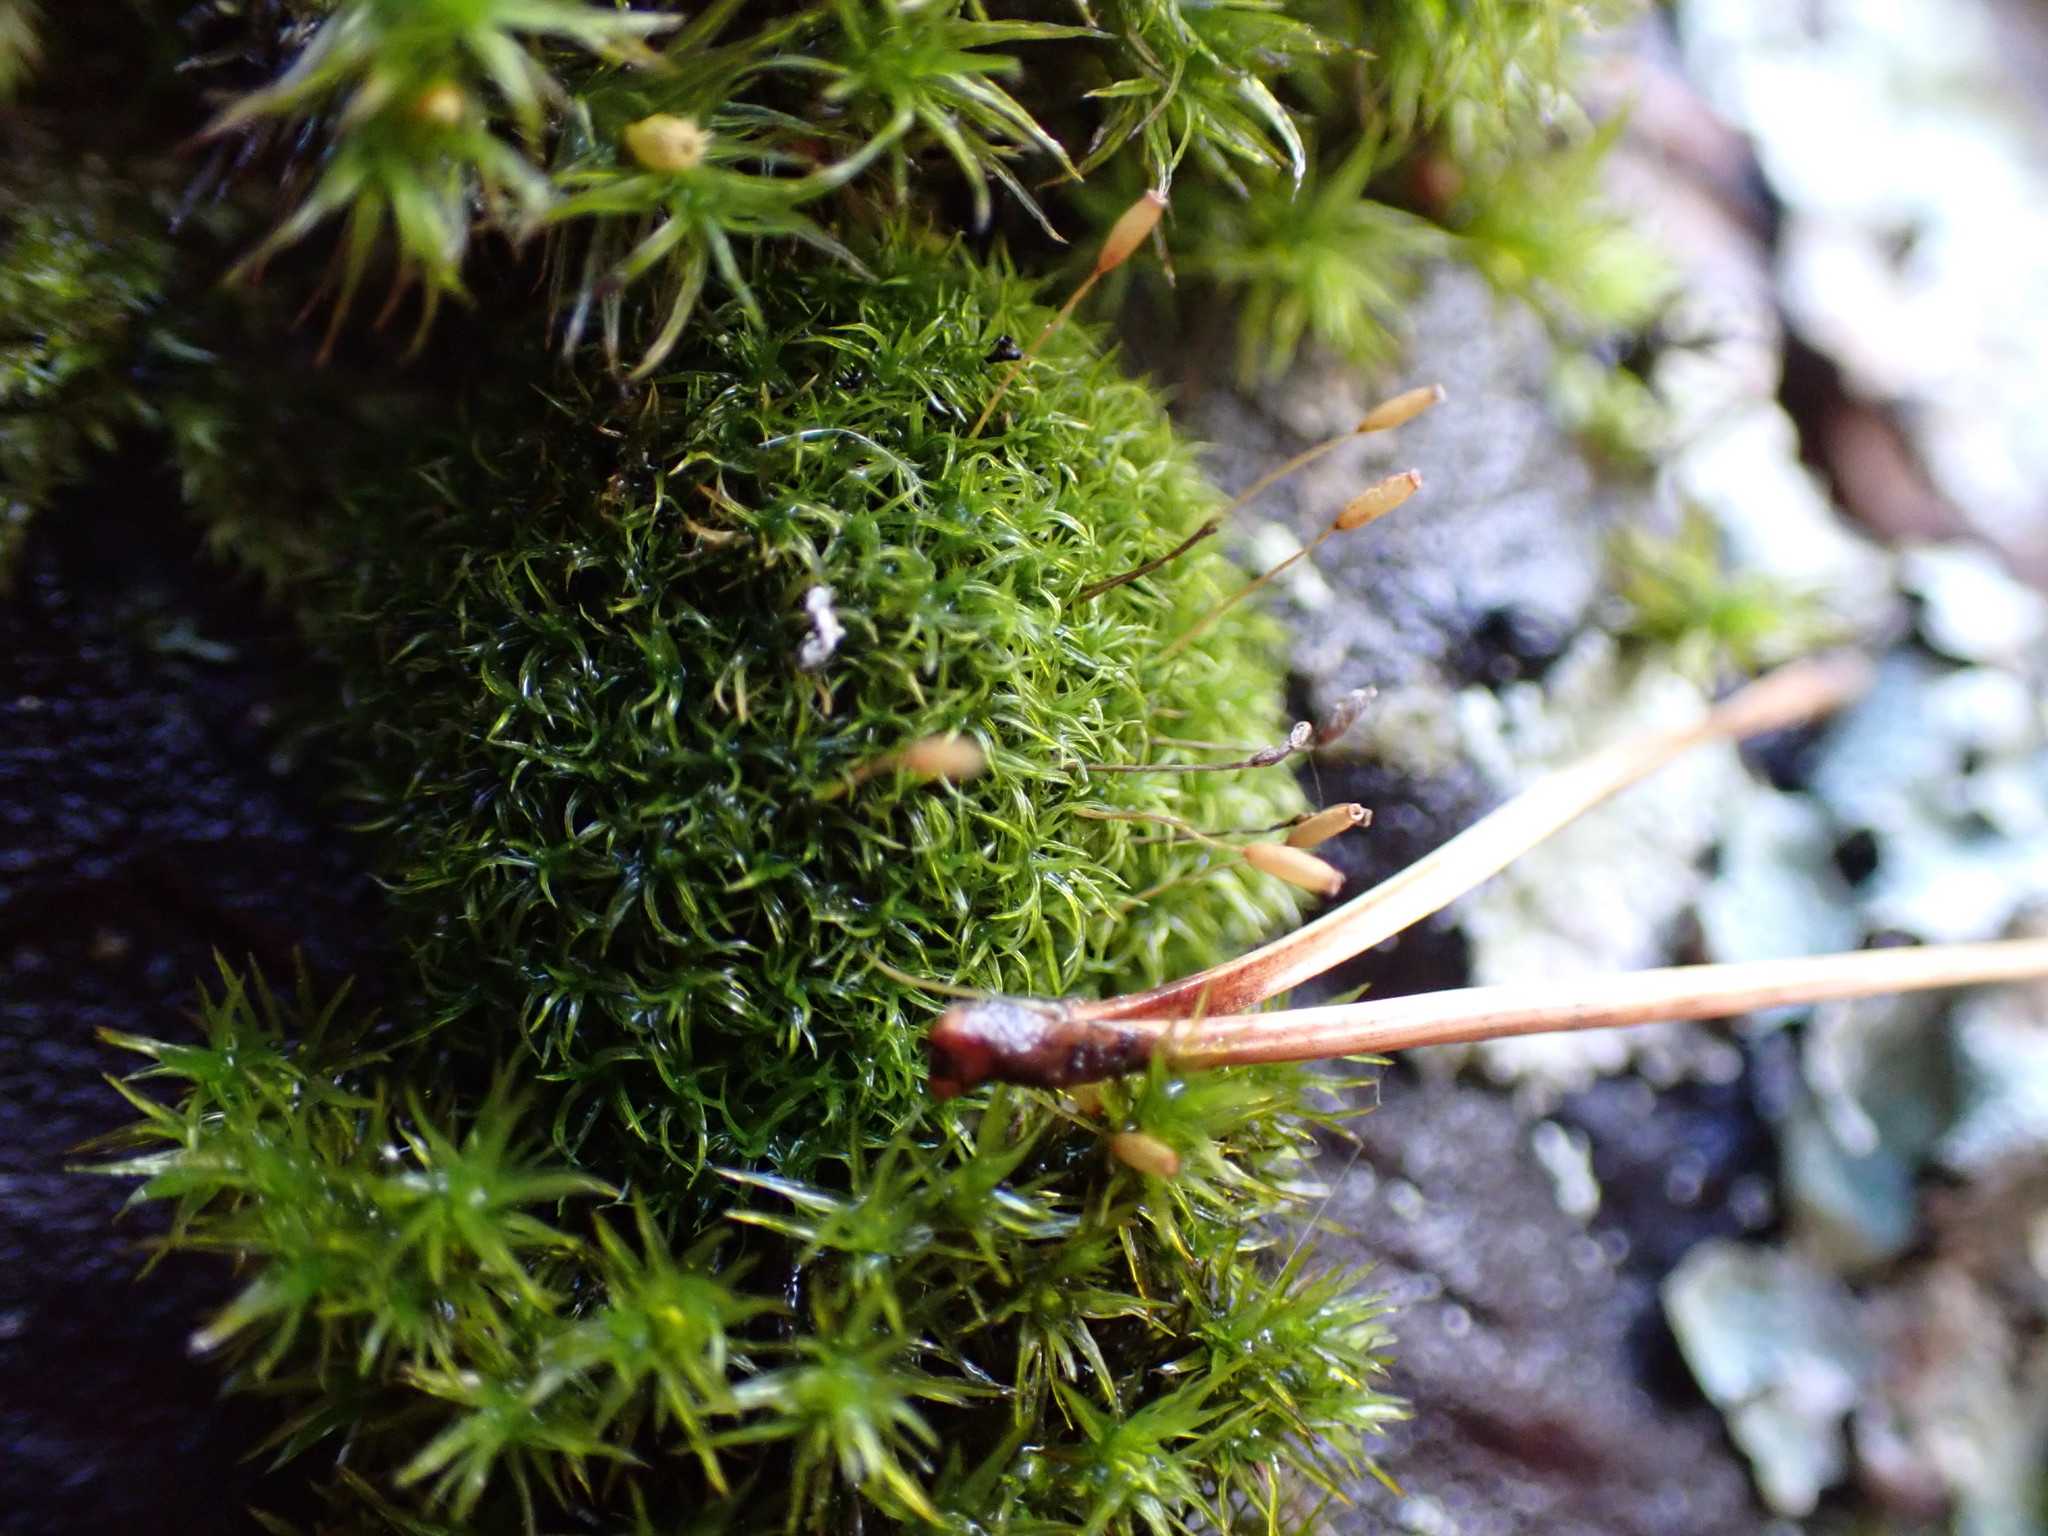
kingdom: Plantae
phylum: Bryophyta
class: Bryopsida
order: Dicranales
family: Rhabdoweisiaceae
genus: Dicranoweisia
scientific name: Dicranoweisia cirrata
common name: Common pincushion
